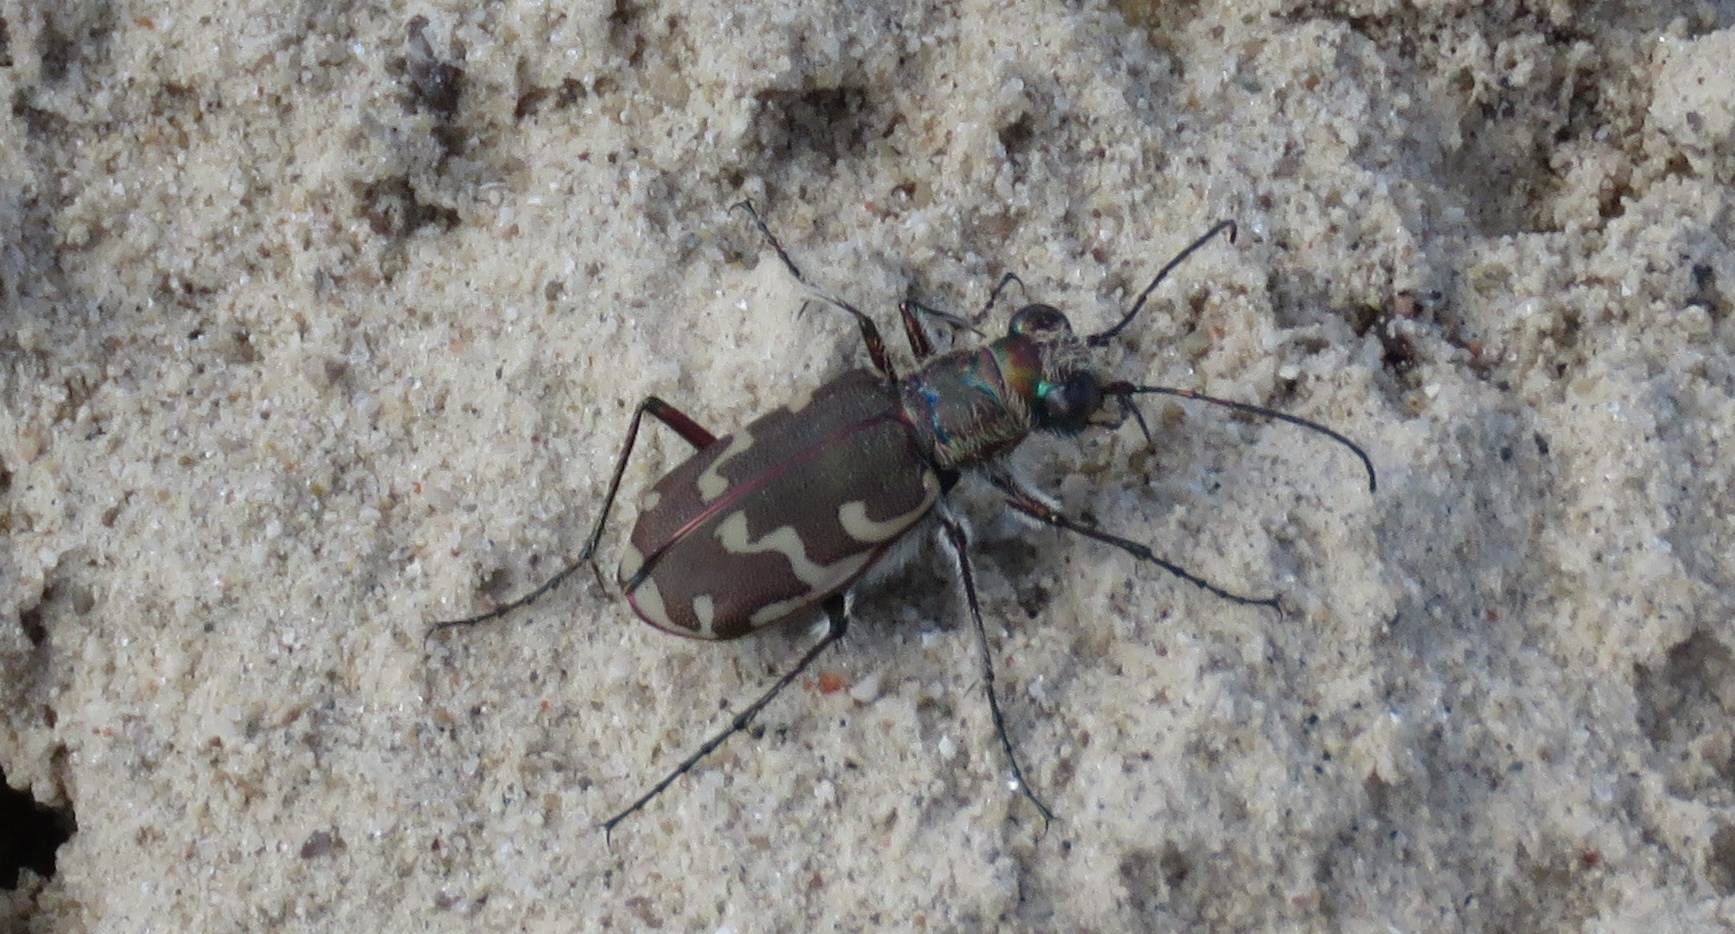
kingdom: Animalia
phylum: Arthropoda
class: Insecta
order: Coleoptera
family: Carabidae
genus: Cicindela
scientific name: Cicindela repanda
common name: Bronzed tiger beetle
